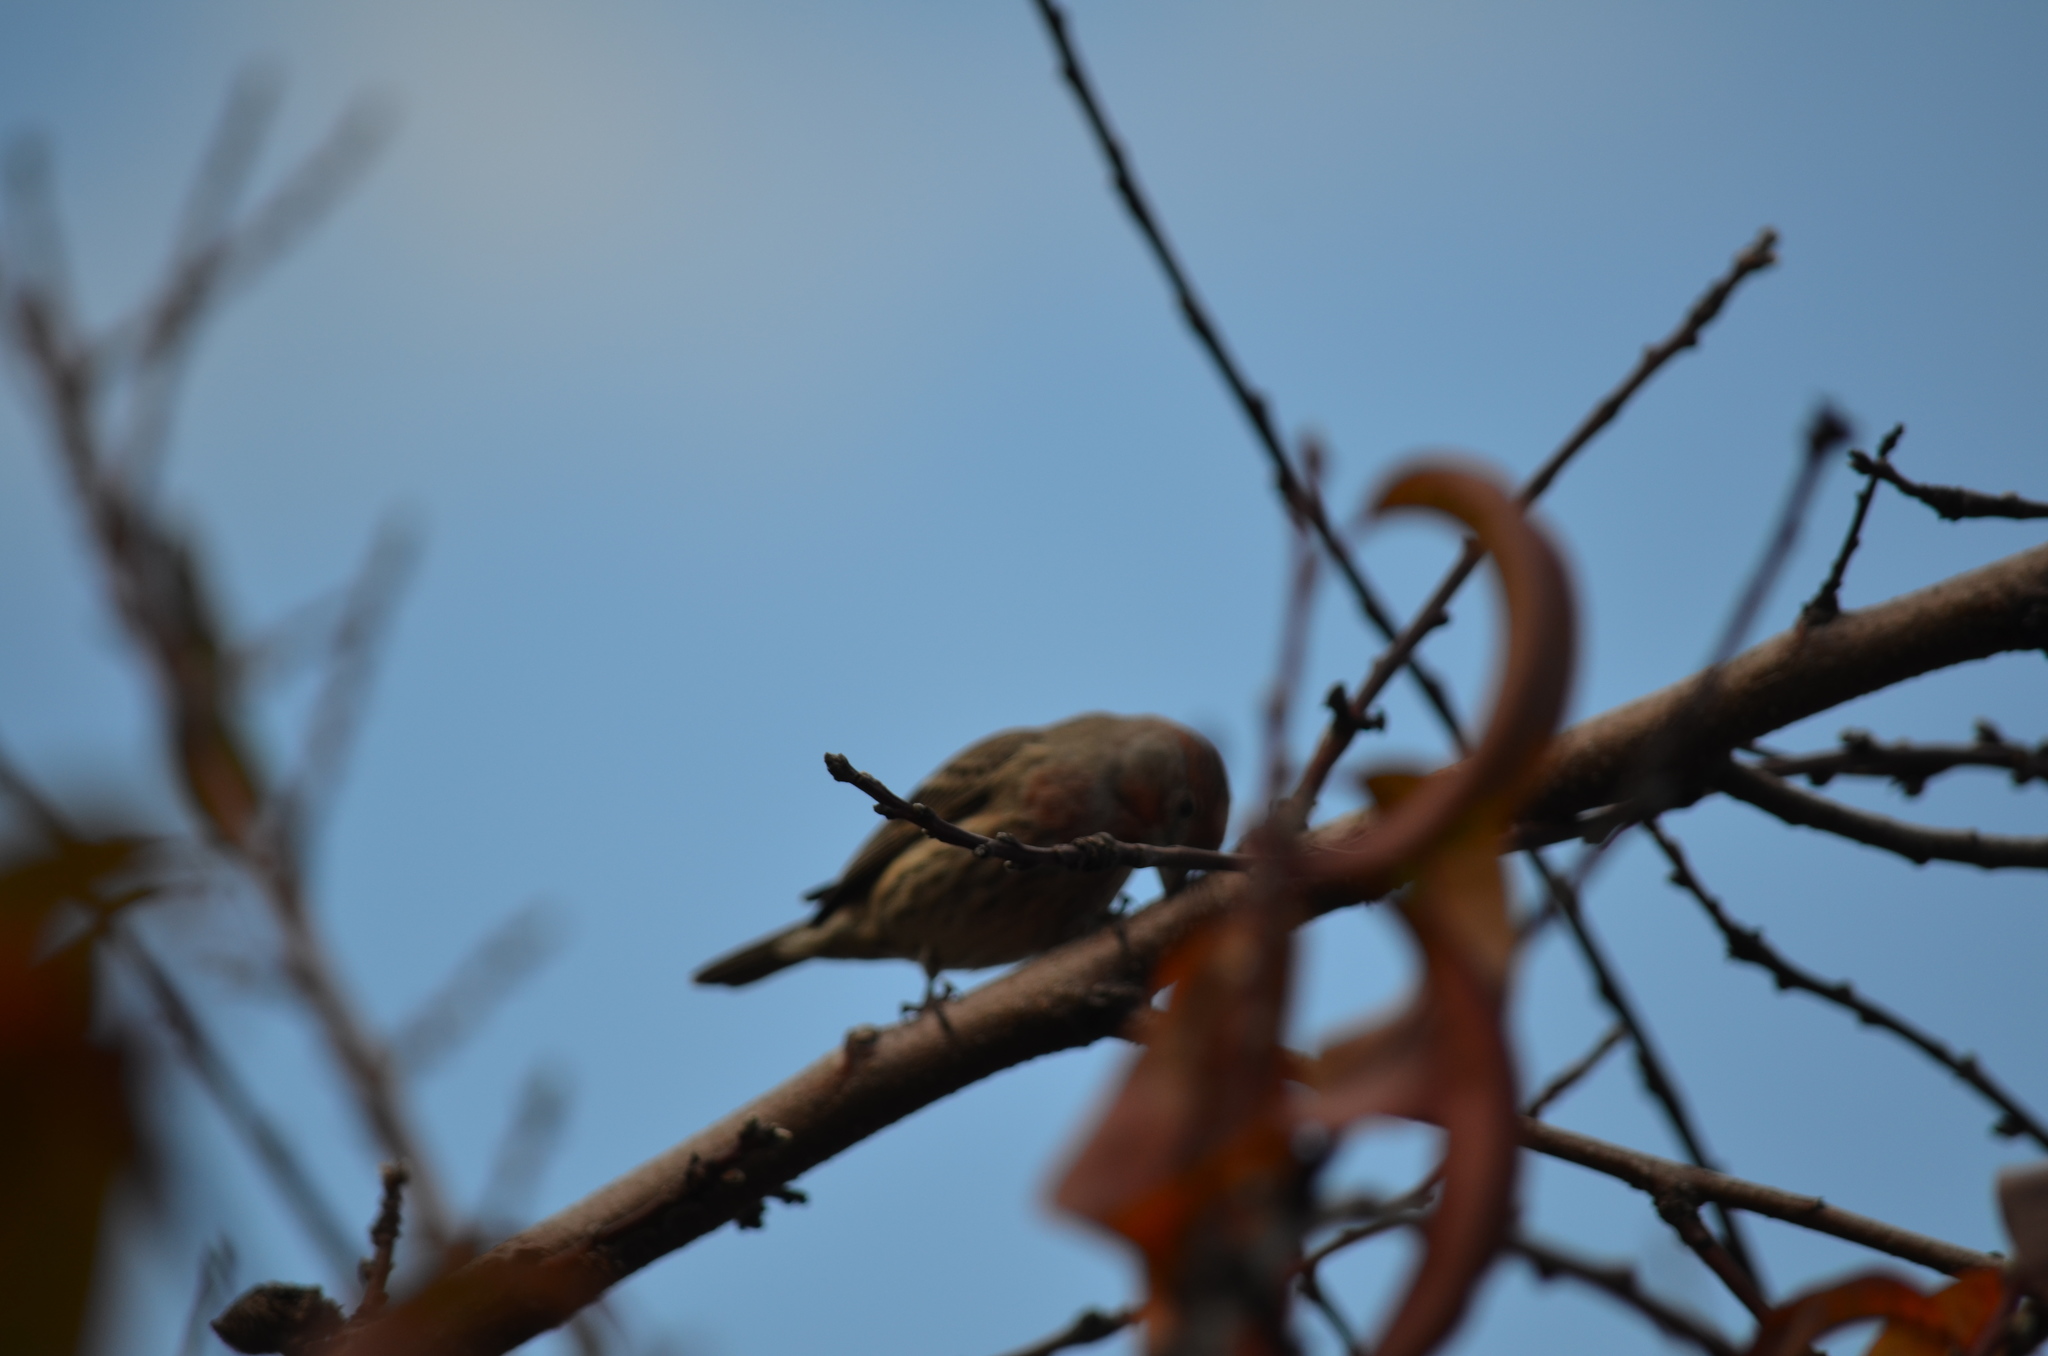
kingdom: Animalia
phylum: Chordata
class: Aves
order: Passeriformes
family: Fringillidae
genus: Haemorhous
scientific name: Haemorhous mexicanus
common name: House finch
